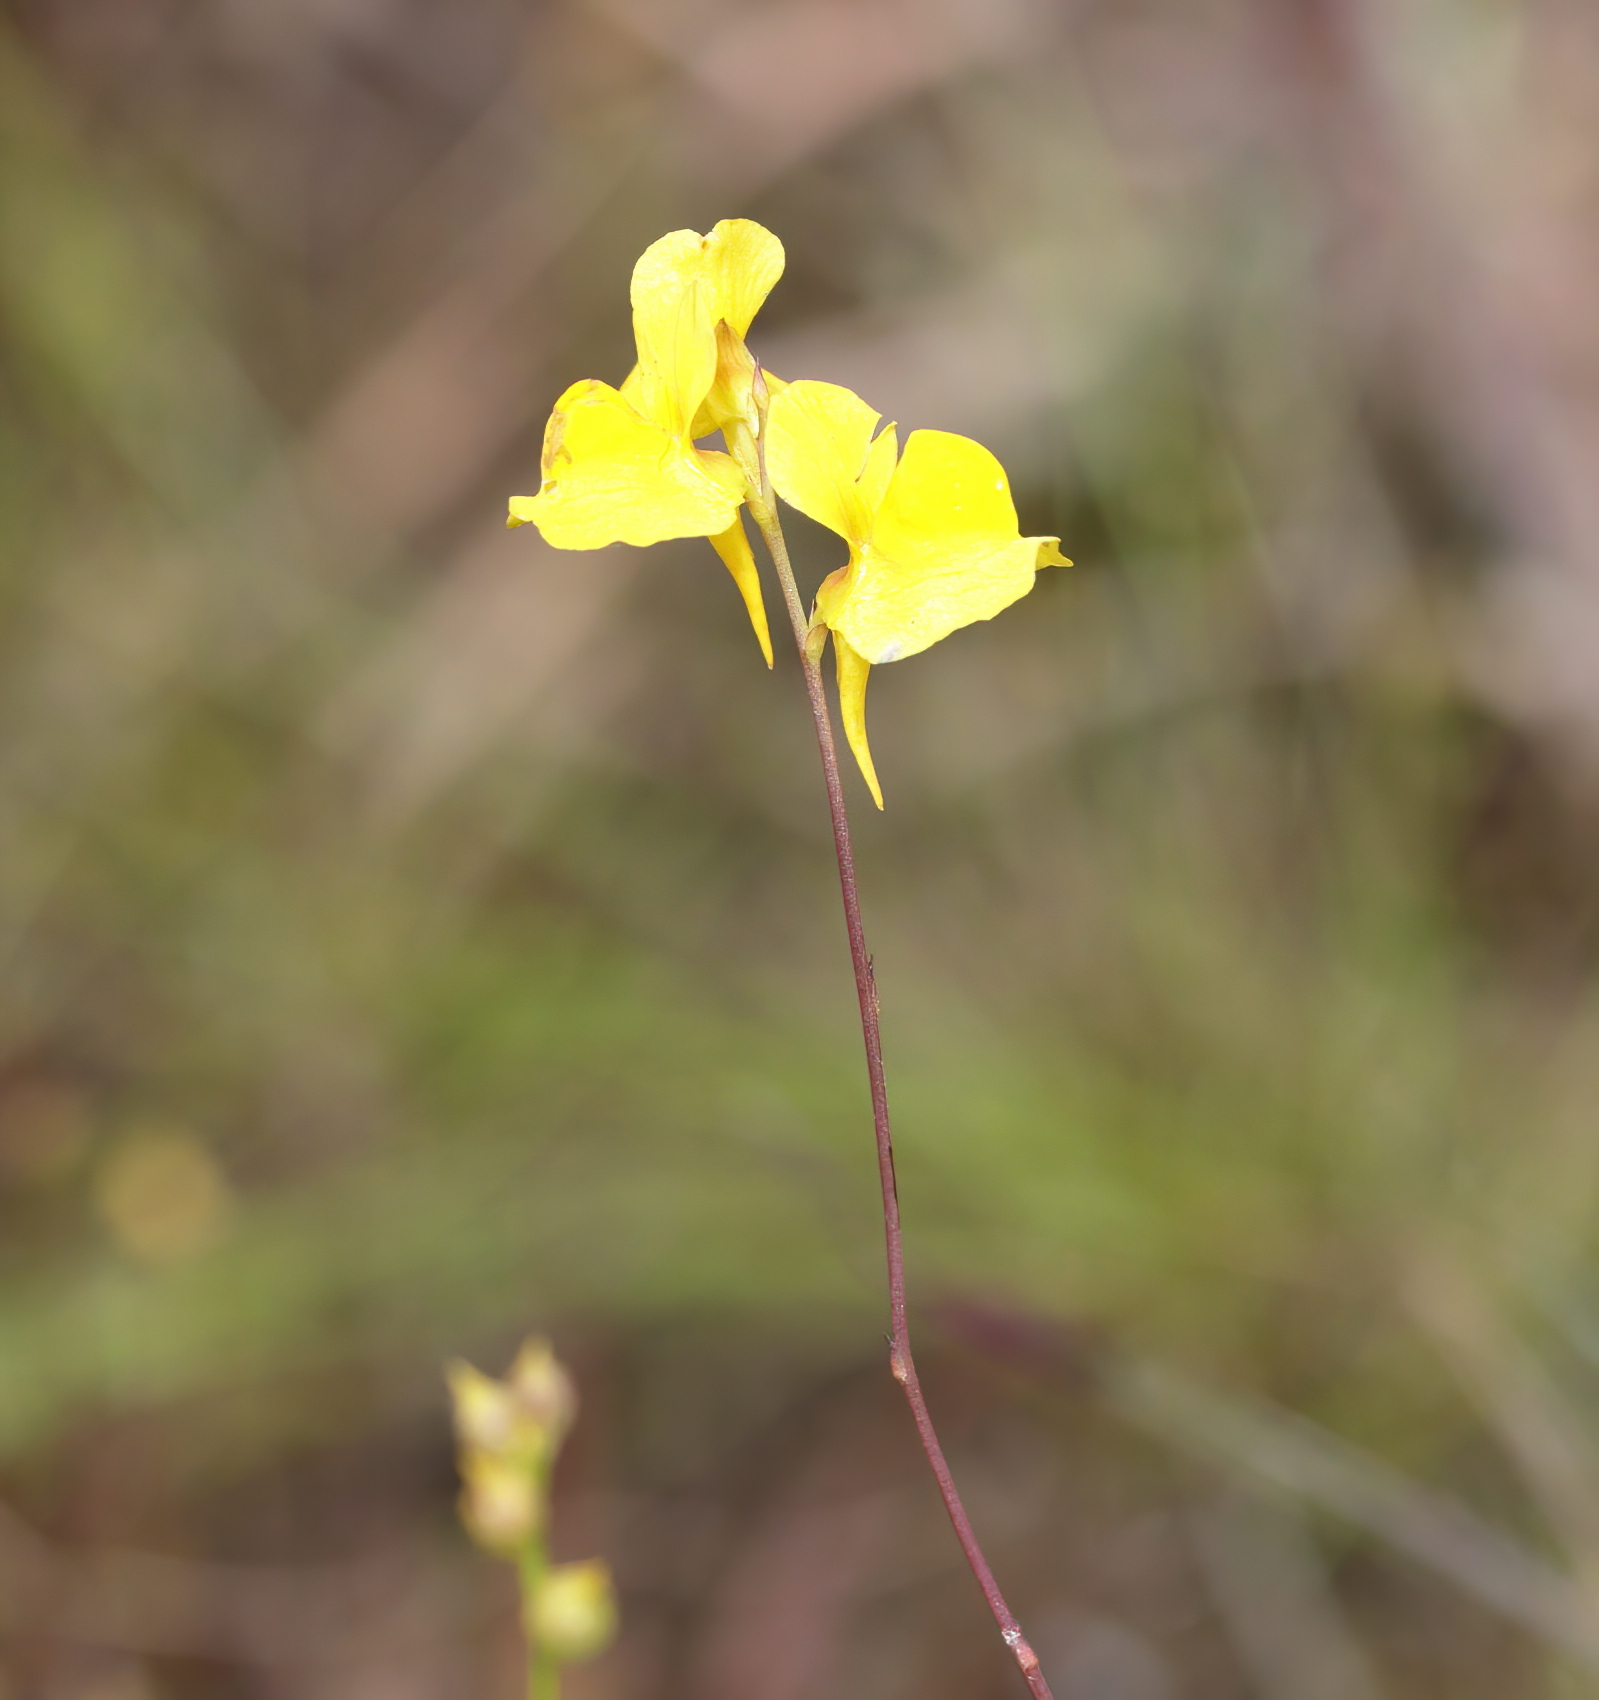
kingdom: Plantae
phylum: Tracheophyta
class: Magnoliopsida
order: Lamiales
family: Lentibulariaceae
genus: Utricularia
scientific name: Utricularia juncea
